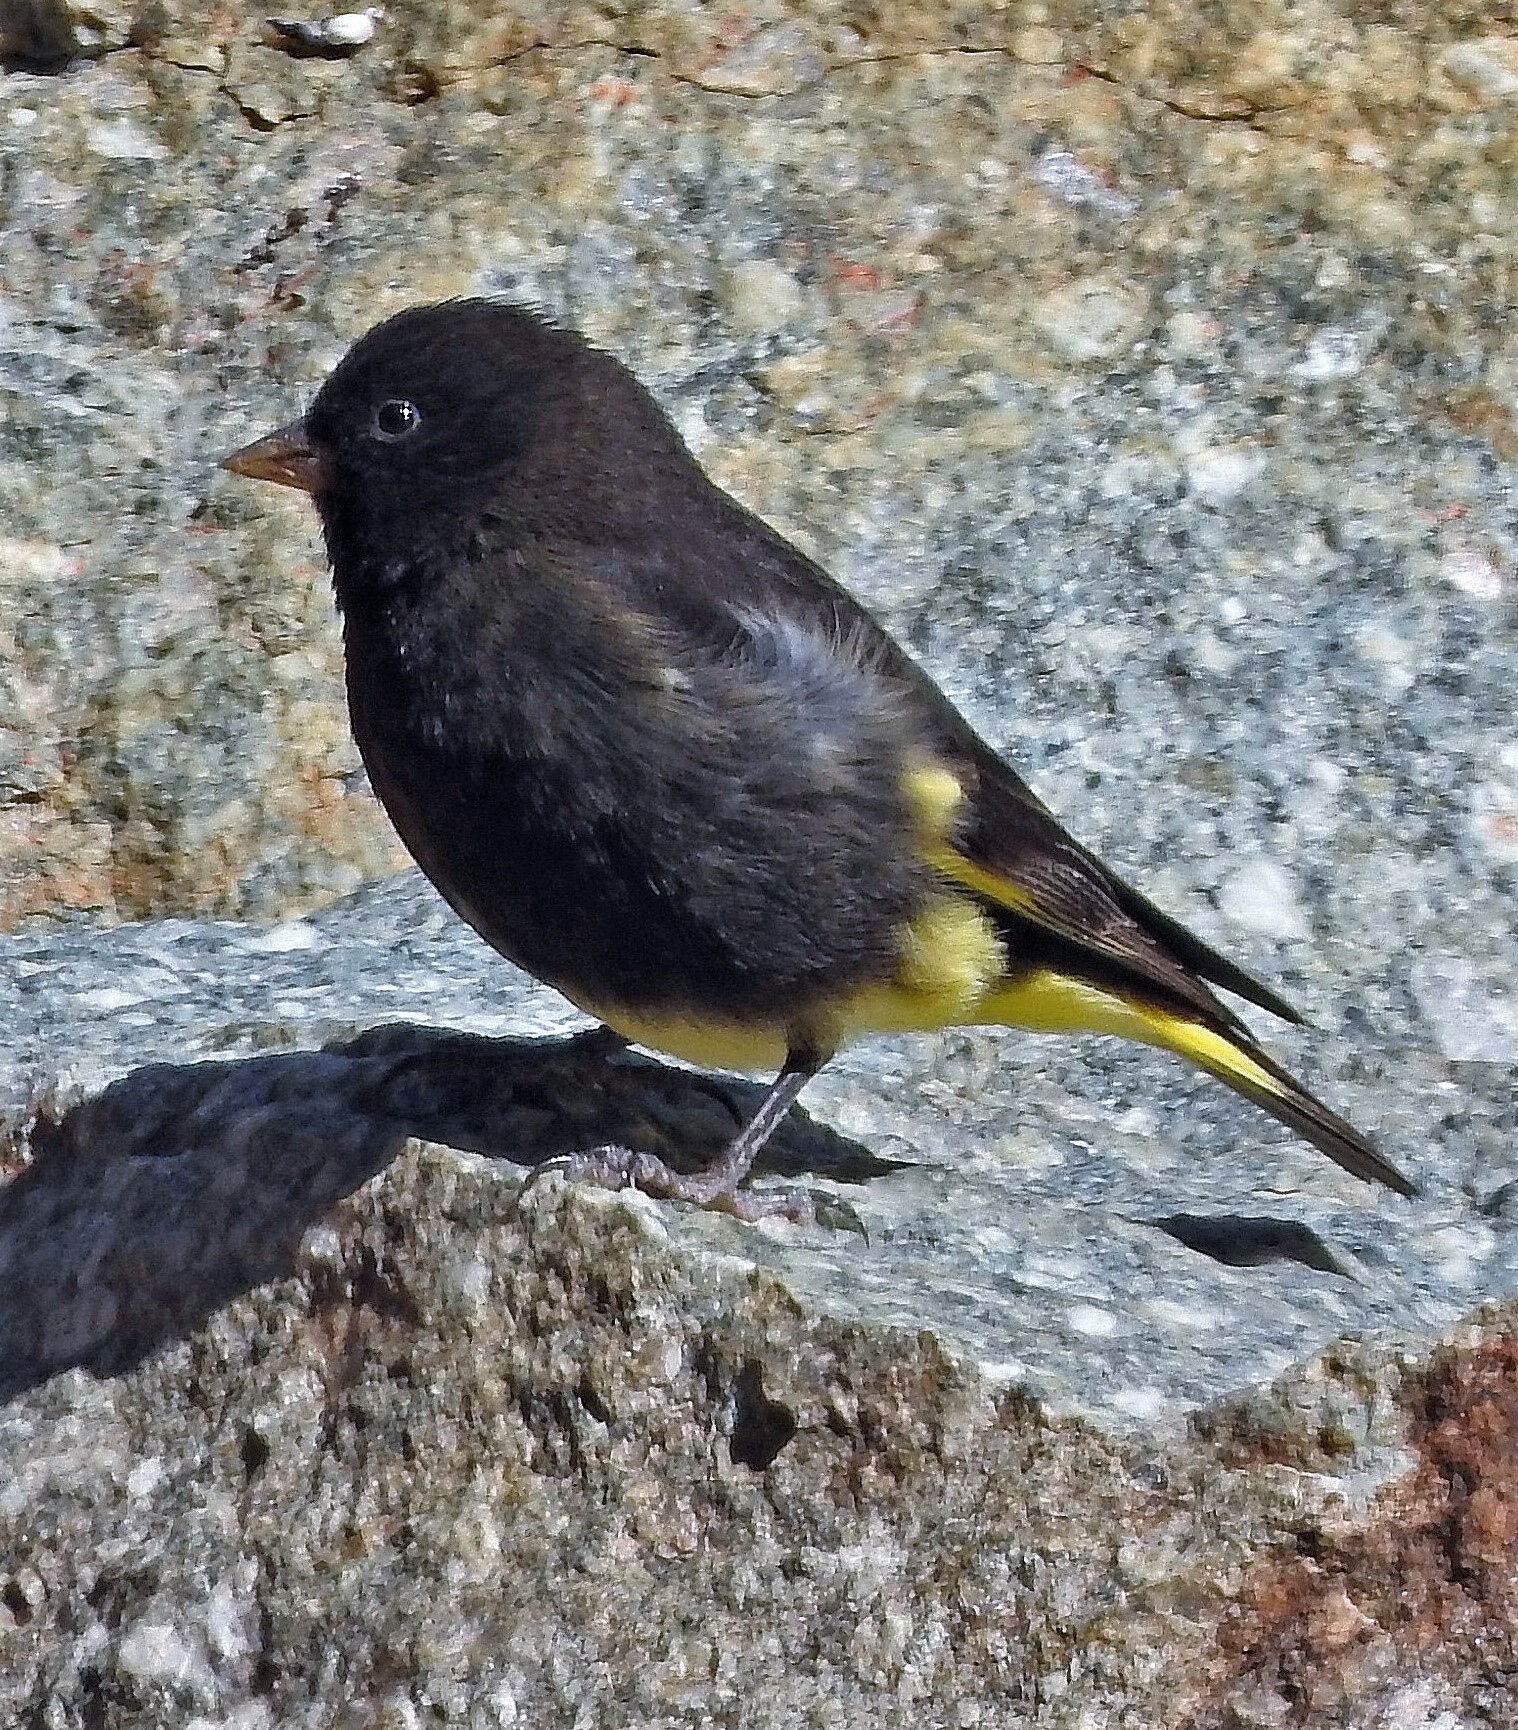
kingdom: Animalia
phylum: Chordata
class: Aves
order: Passeriformes
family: Fringillidae
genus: Spinus
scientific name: Spinus atratus
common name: Black siskin
